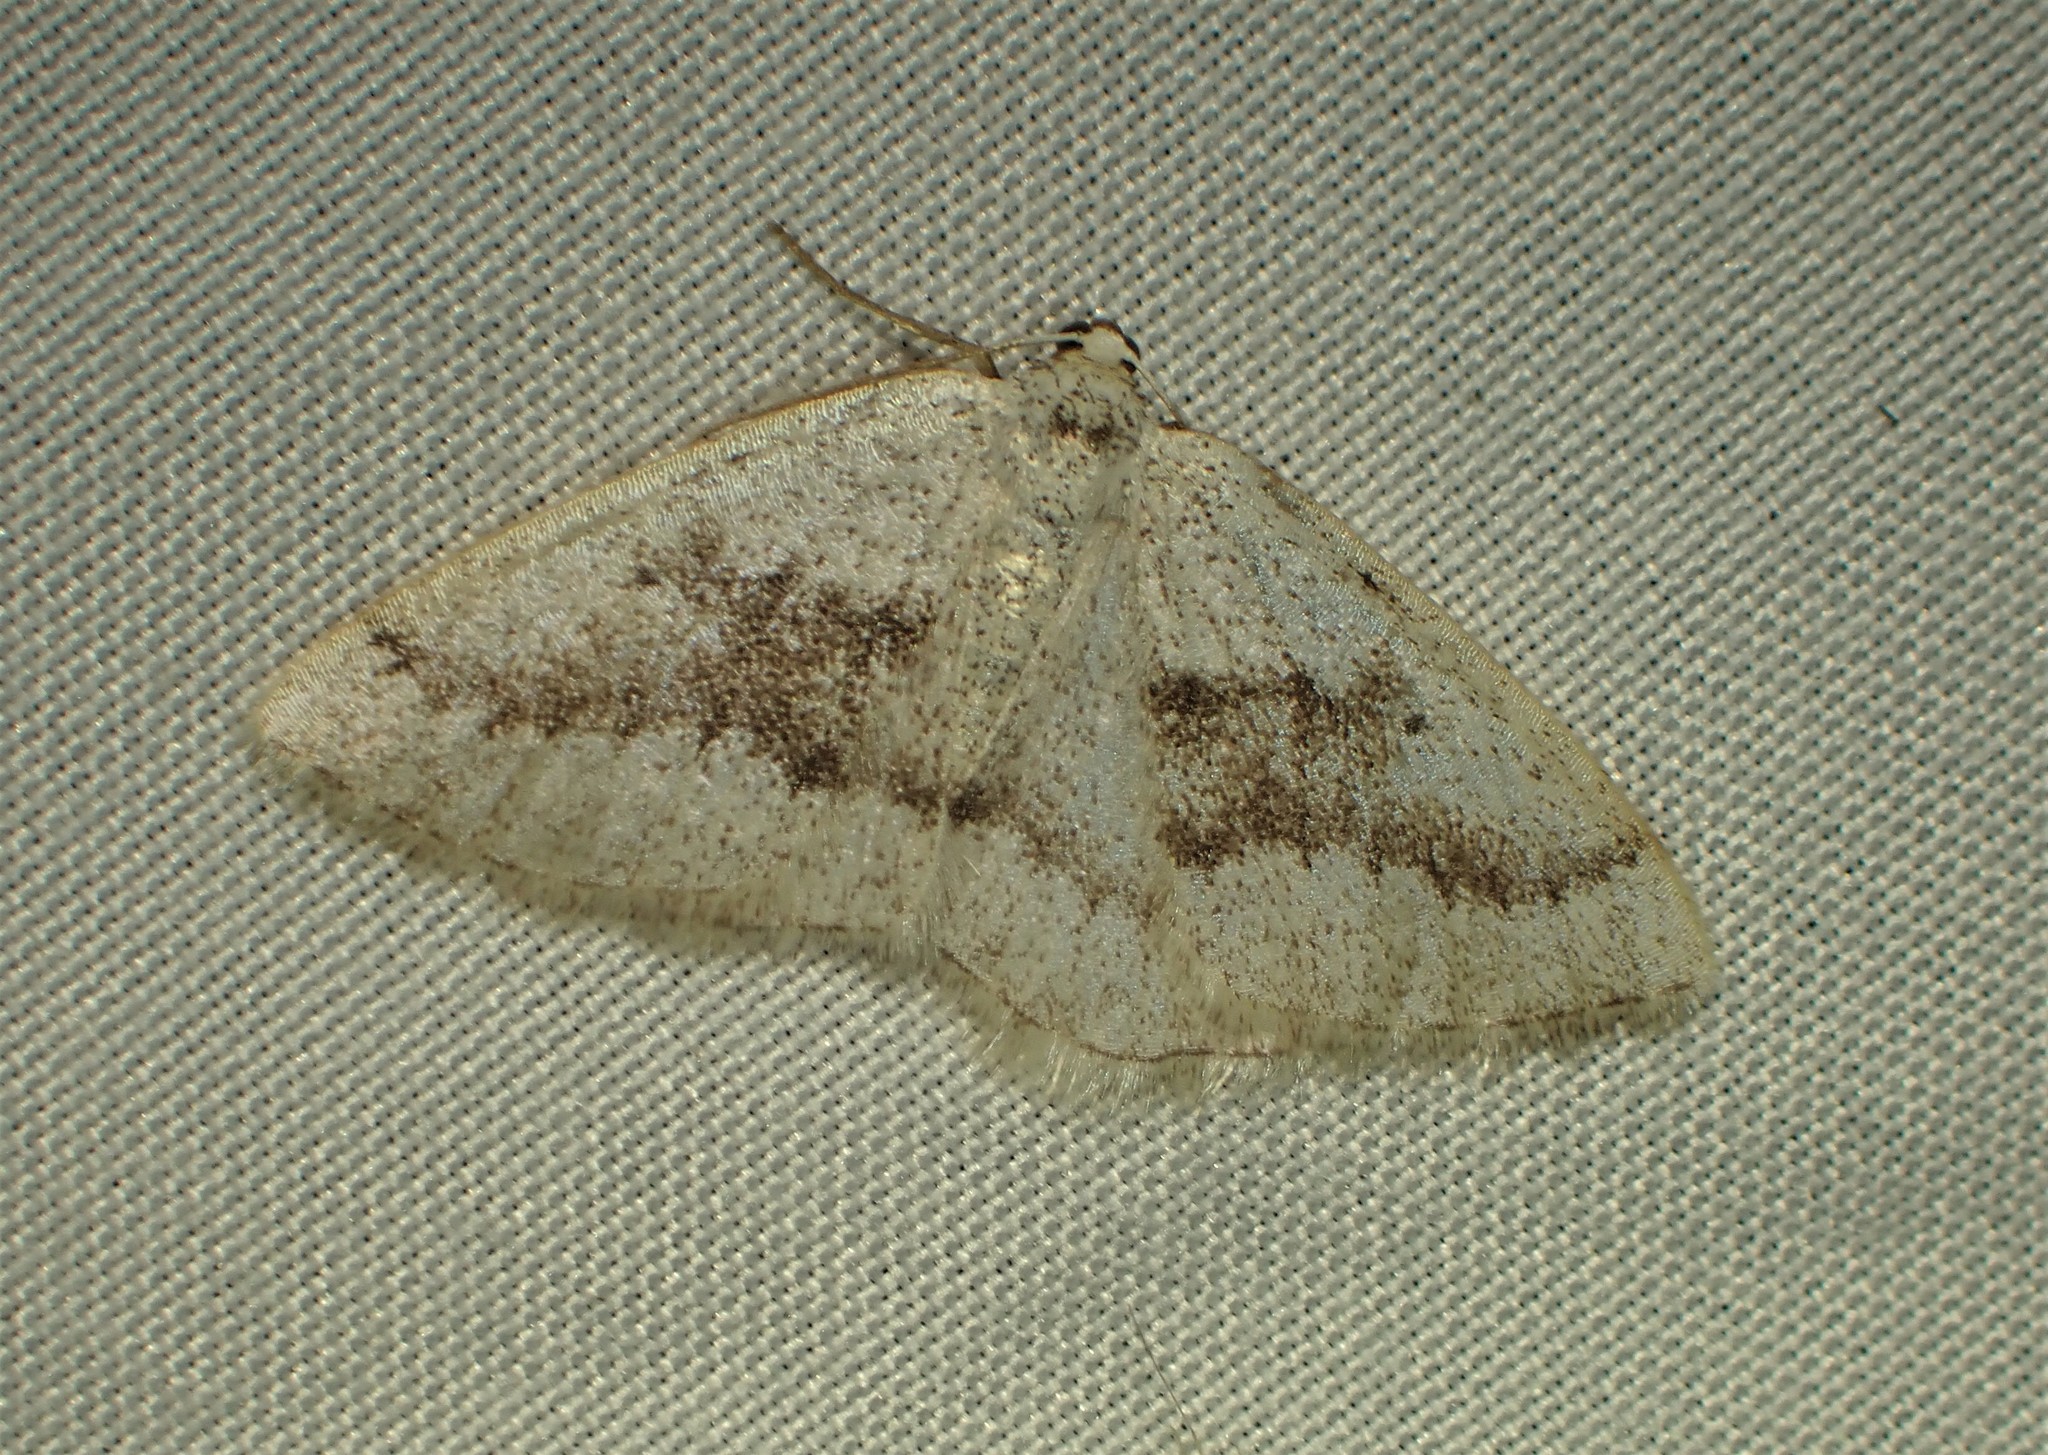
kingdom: Animalia
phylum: Arthropoda
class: Insecta
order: Lepidoptera
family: Geometridae
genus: Lomographa
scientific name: Lomographa glomeraria
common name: Gray spring moth
